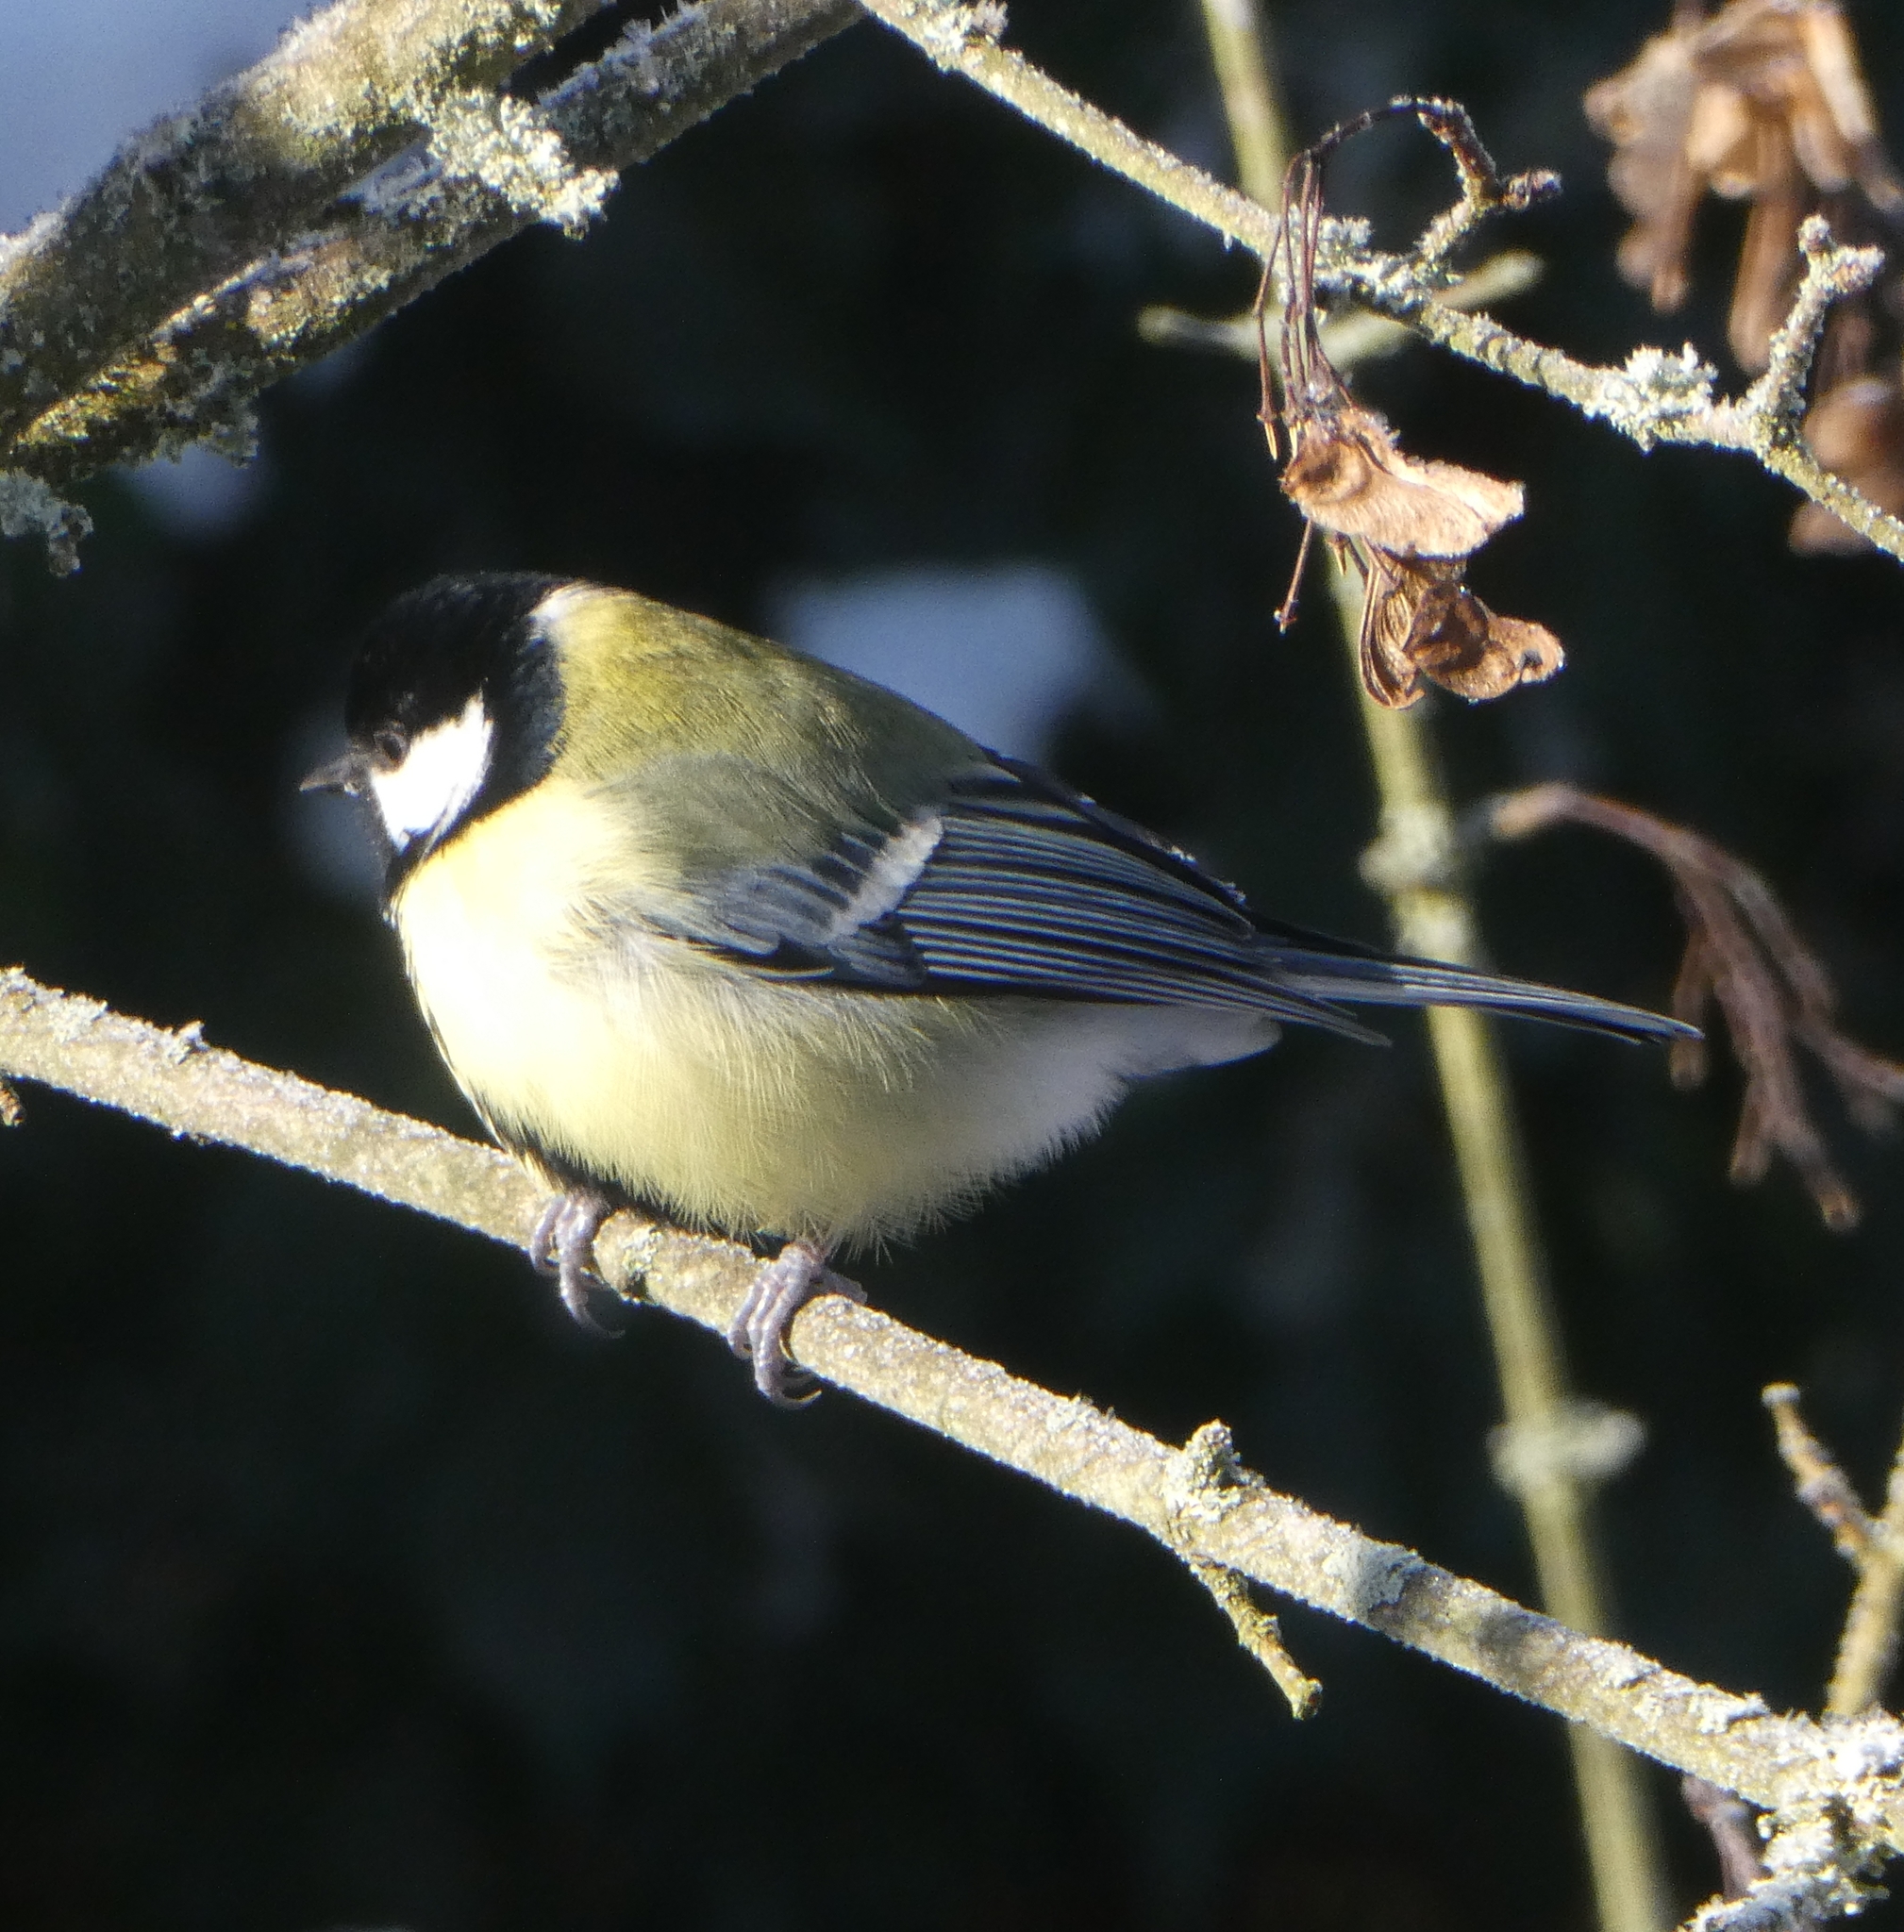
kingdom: Animalia
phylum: Chordata
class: Aves
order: Passeriformes
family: Paridae
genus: Parus
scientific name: Parus major
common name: Great tit
